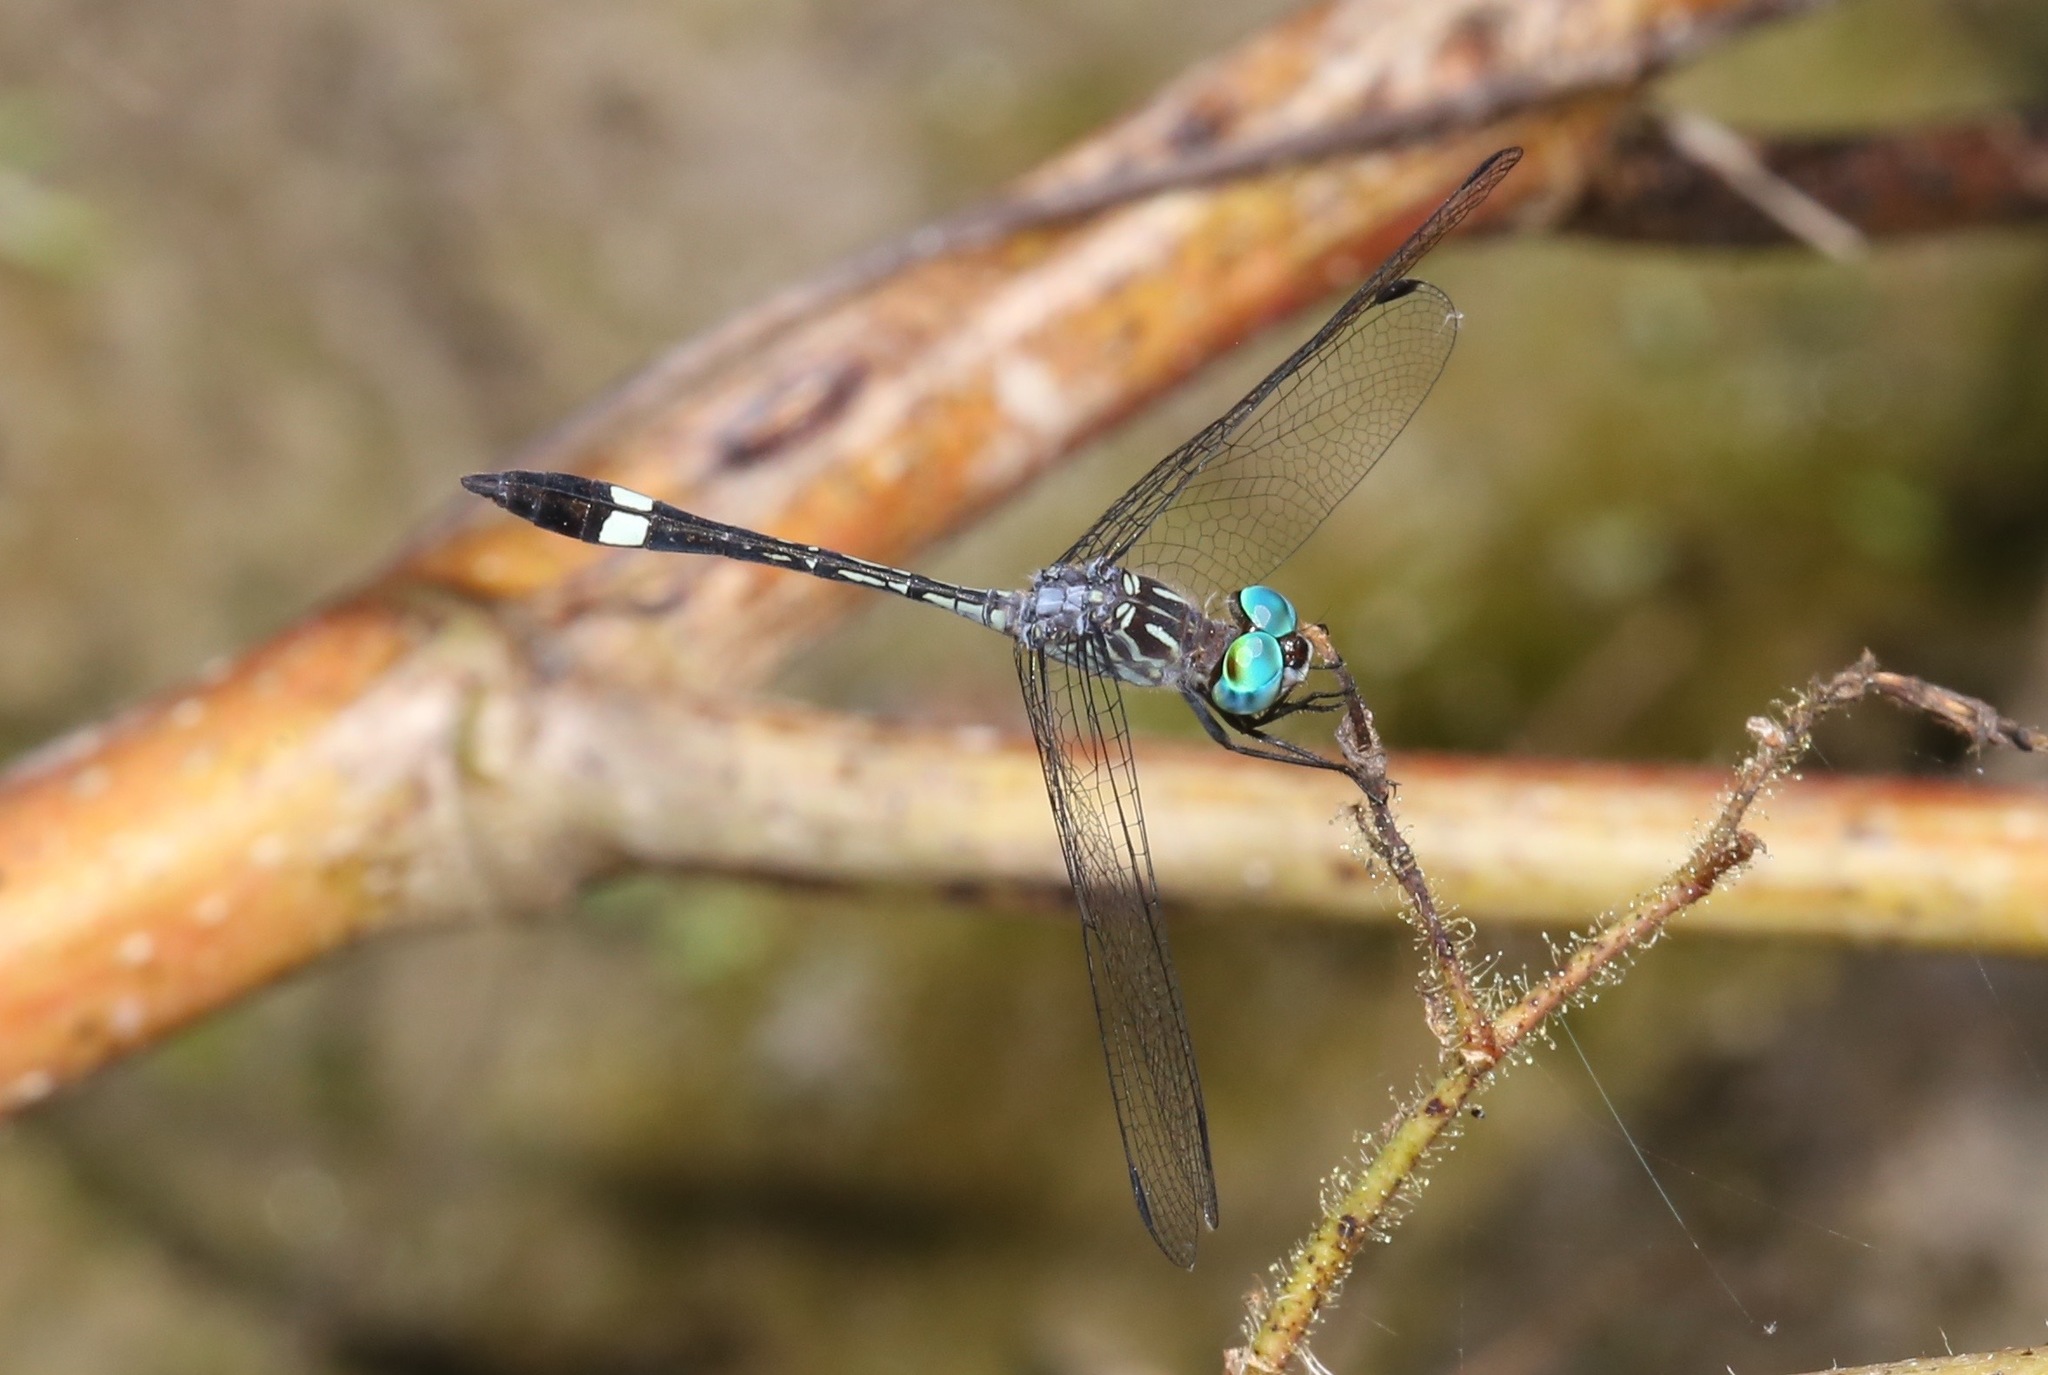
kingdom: Animalia
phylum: Arthropoda
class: Insecta
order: Odonata
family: Libellulidae
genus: Micrathyria
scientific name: Micrathyria ocellata
